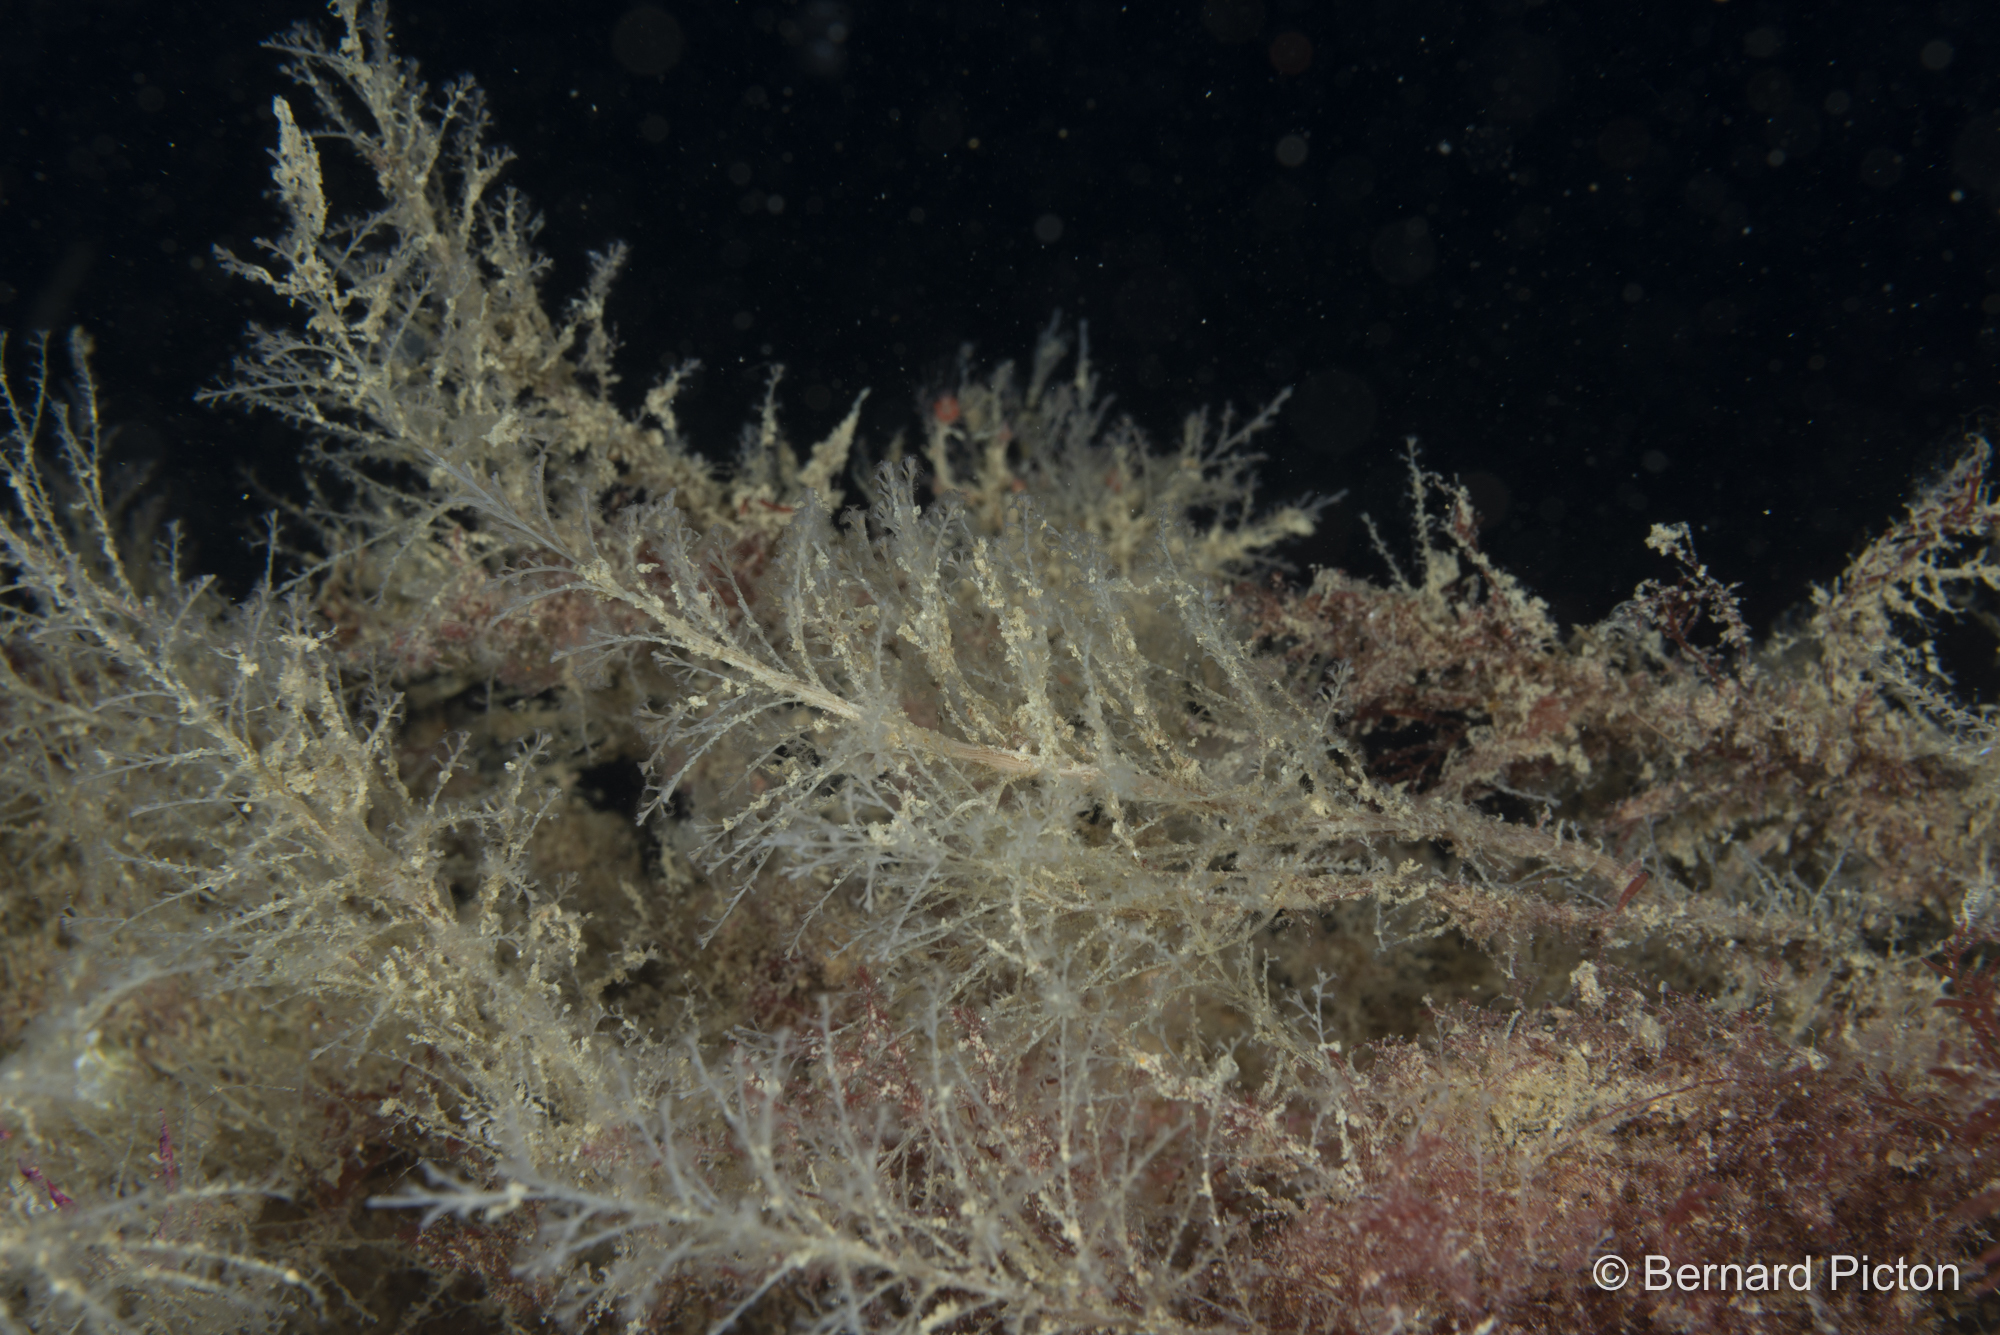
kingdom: Animalia
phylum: Cnidaria
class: Hydrozoa
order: Leptothecata
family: Haleciidae
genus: Halecium
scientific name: Halecium plumosum
